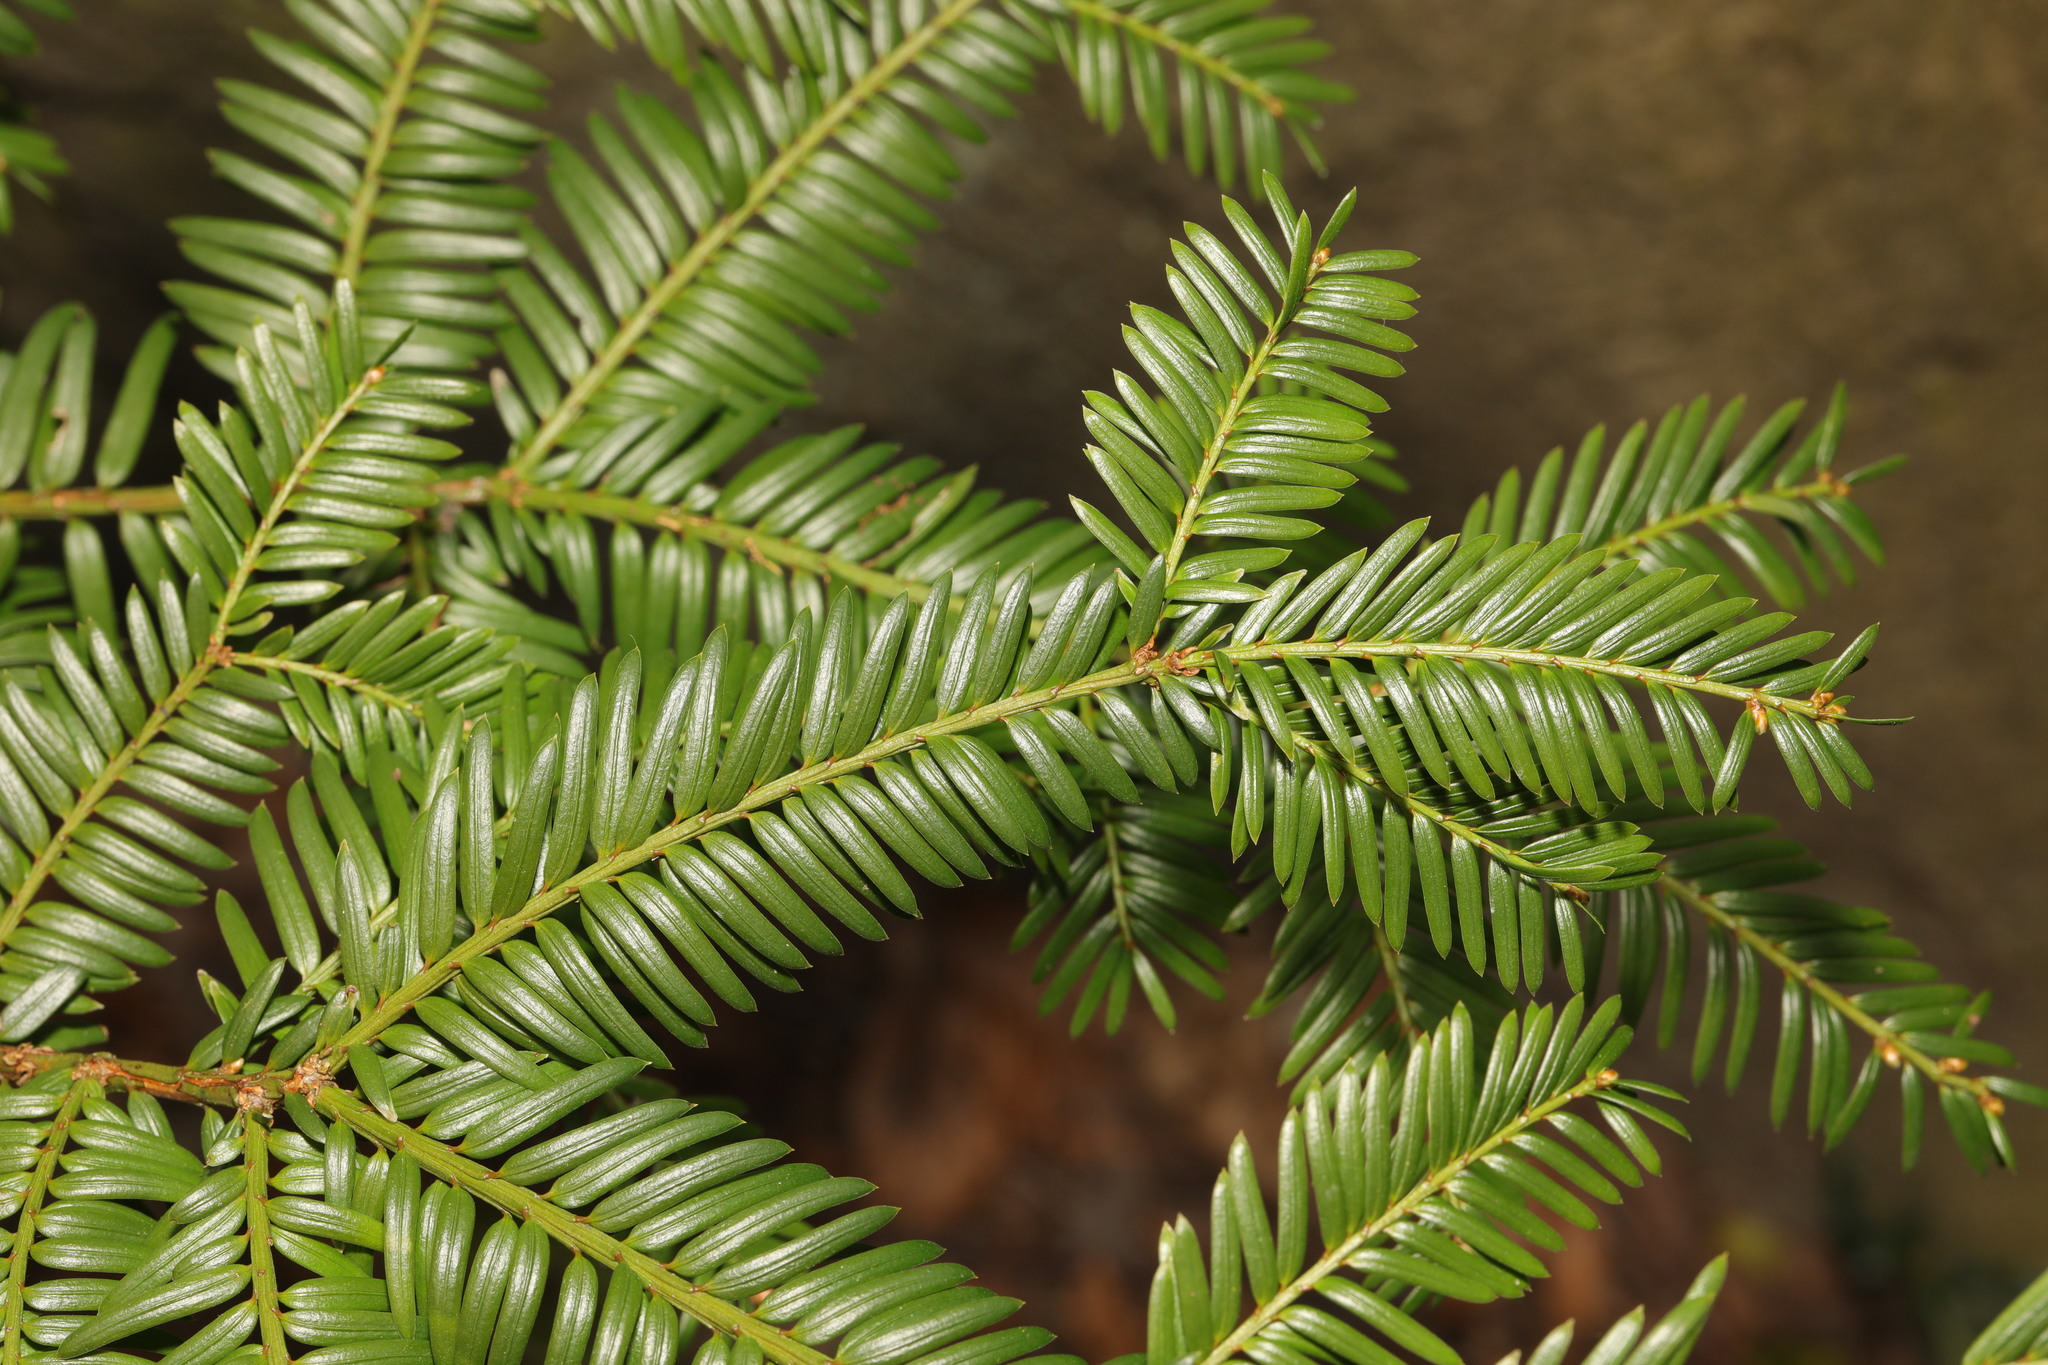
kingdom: Plantae
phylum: Tracheophyta
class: Pinopsida
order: Pinales
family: Taxaceae
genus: Taxus
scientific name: Taxus baccata
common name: Yew
